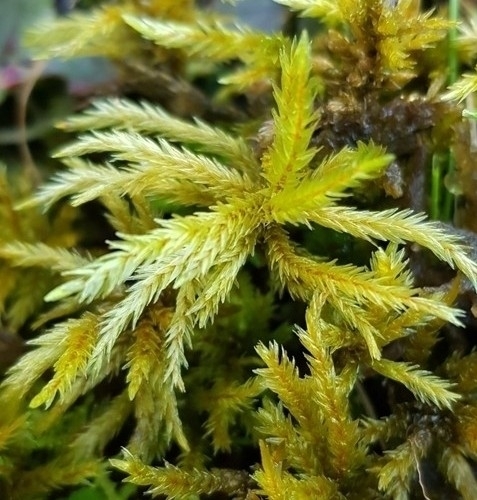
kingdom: Plantae
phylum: Bryophyta
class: Bryopsida
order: Hypnales
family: Climaciaceae
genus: Climacium
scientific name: Climacium dendroides
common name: Northern tree moss
